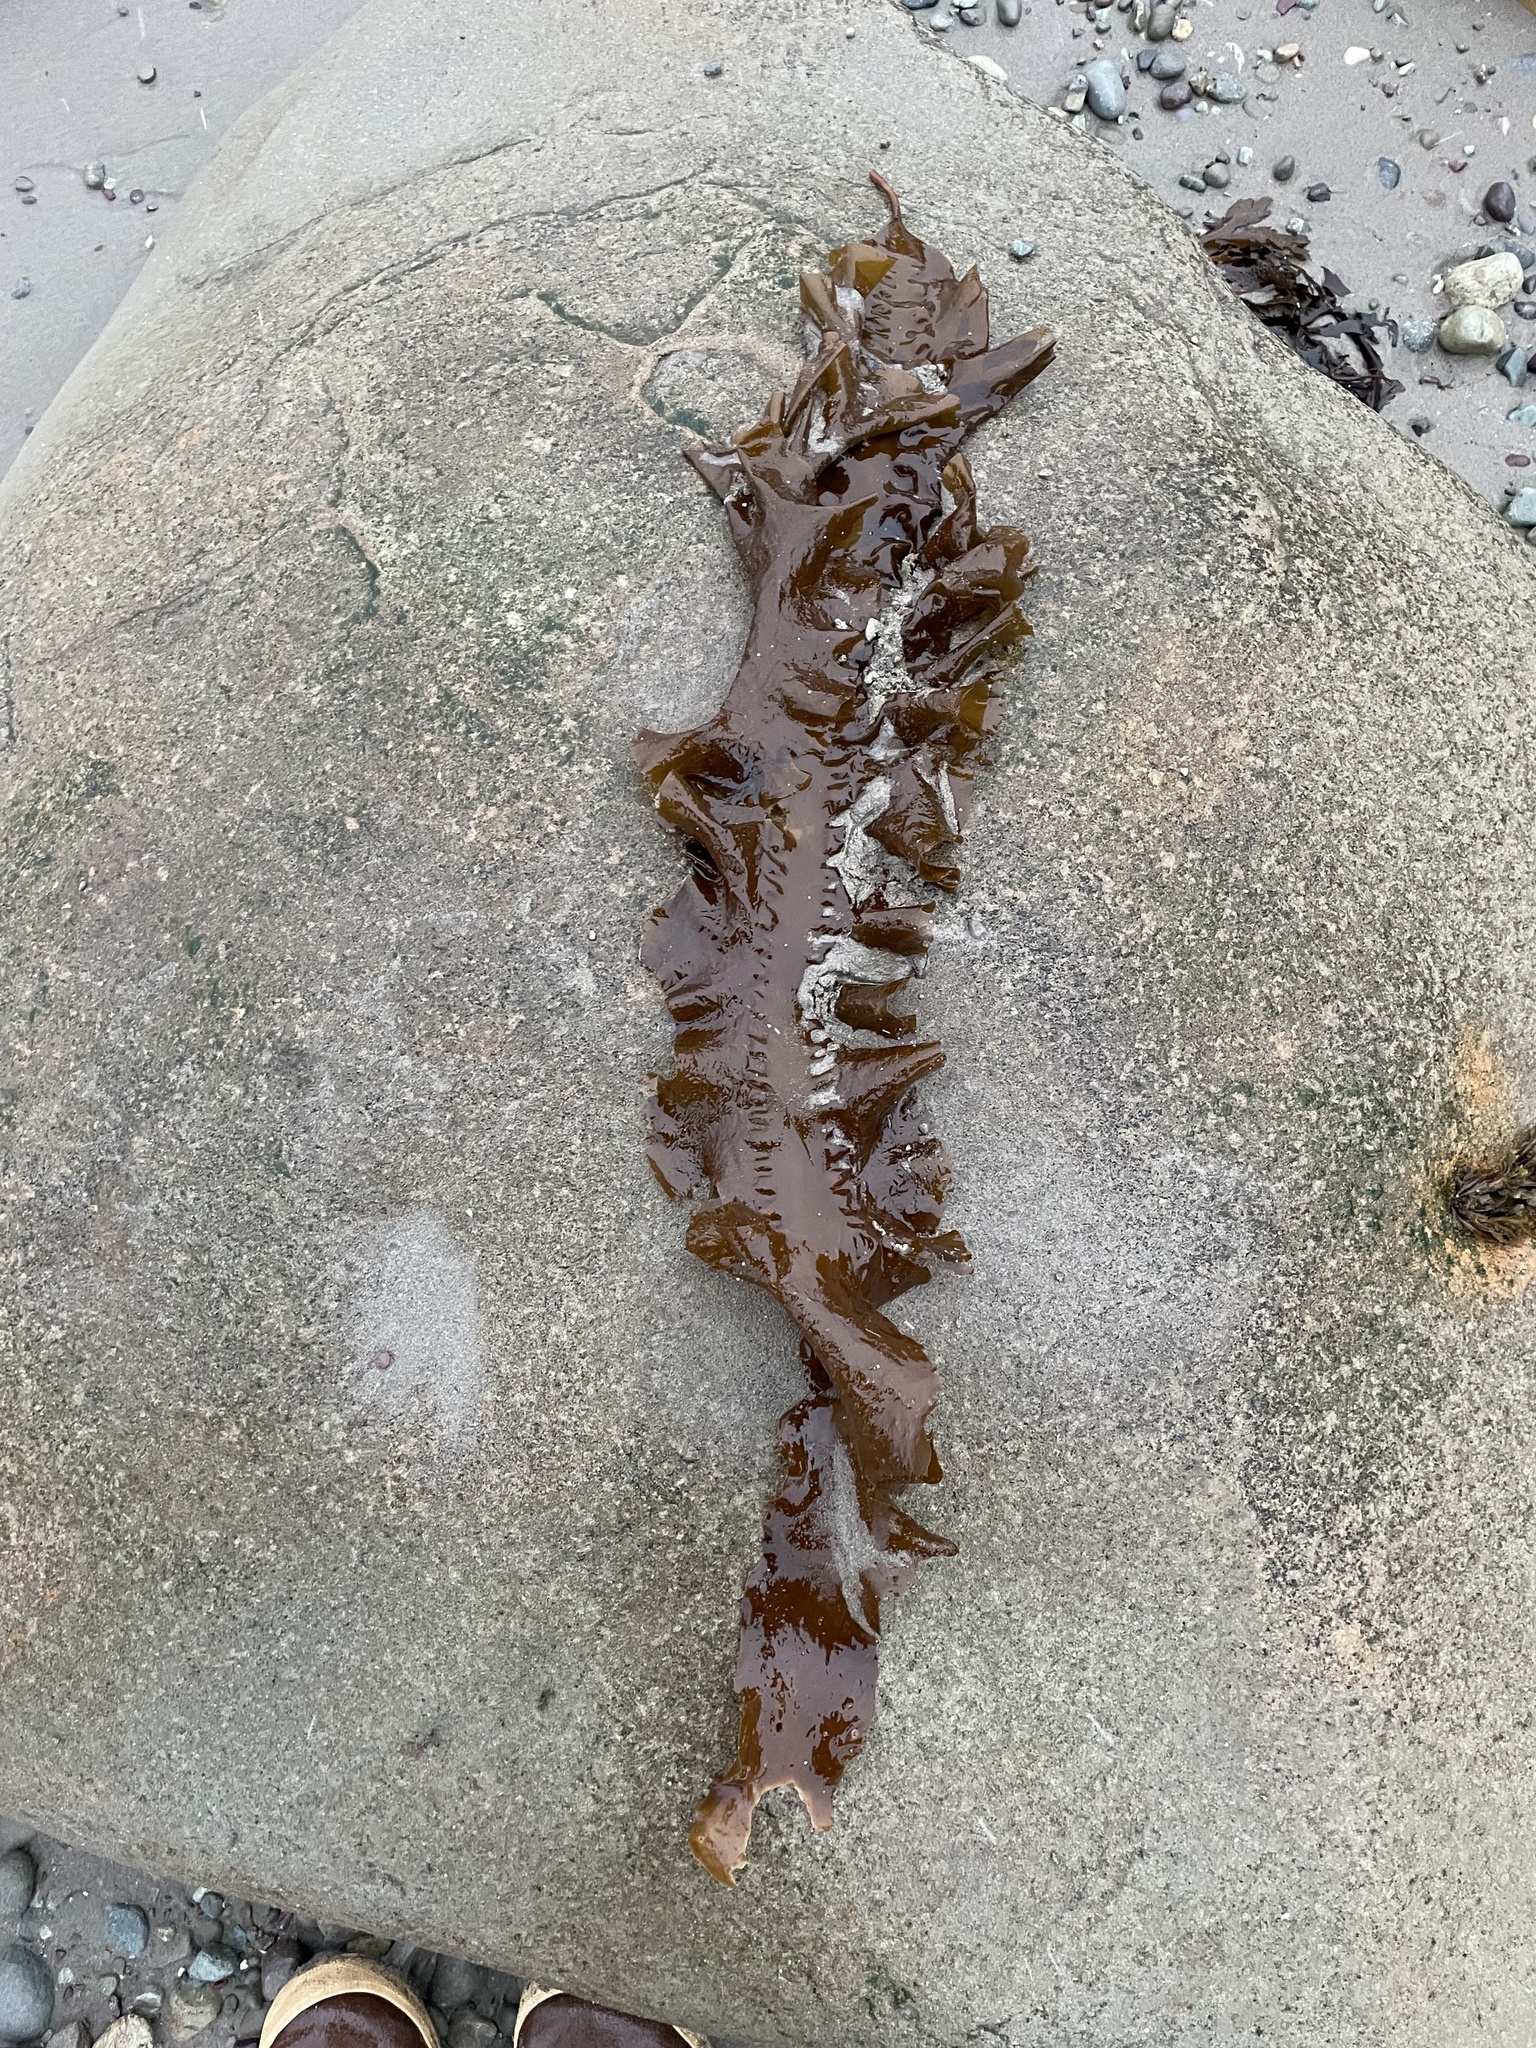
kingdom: Chromista
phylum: Ochrophyta
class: Phaeophyceae
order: Laminariales
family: Laminariaceae
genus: Saccharina
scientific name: Saccharina latissima
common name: Poor man's weather glass
